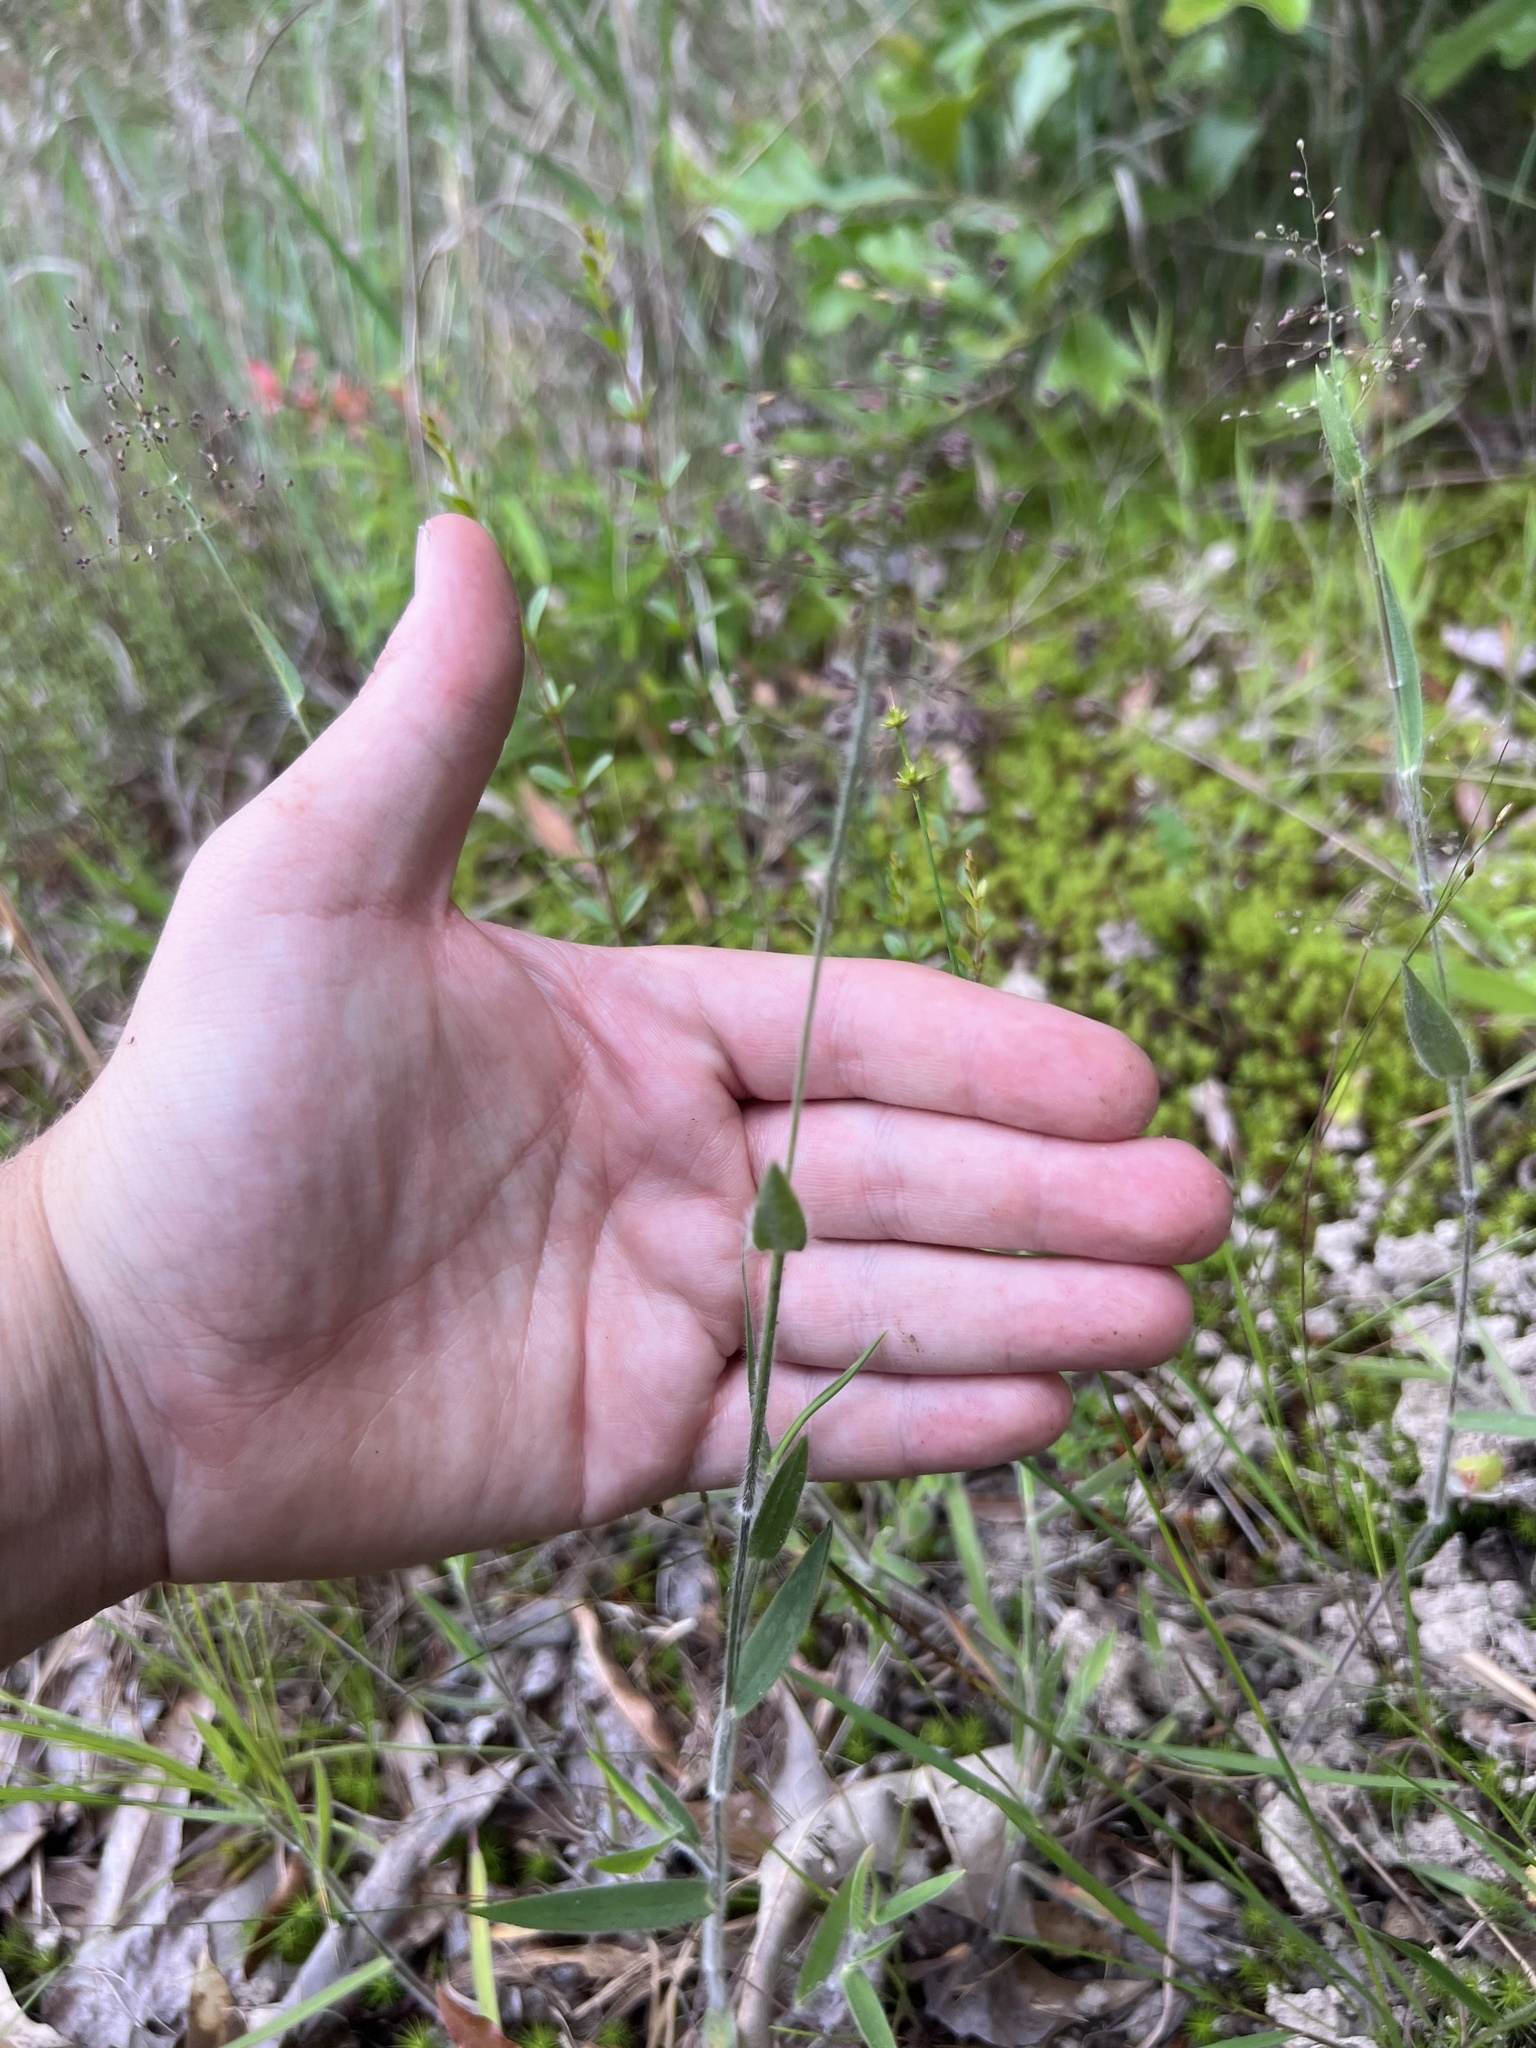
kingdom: Plantae
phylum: Tracheophyta
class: Liliopsida
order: Poales
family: Poaceae
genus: Dichanthelium
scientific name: Dichanthelium consanguineum
